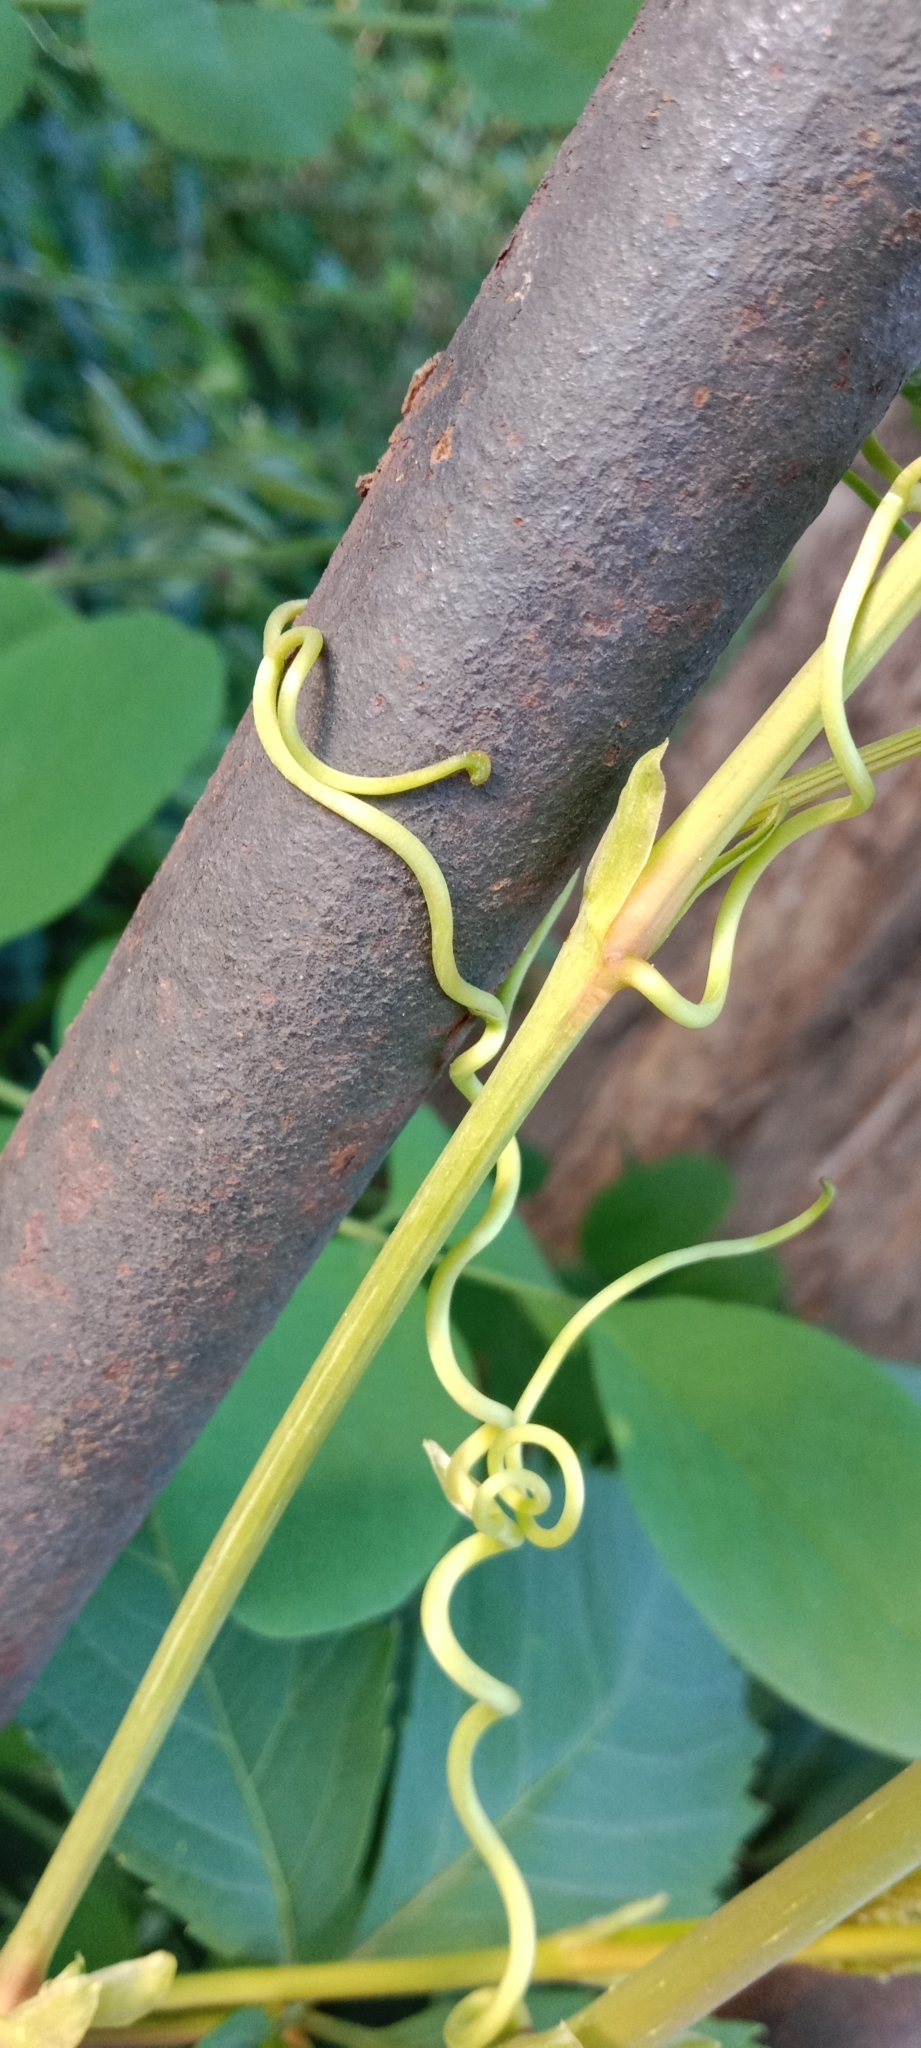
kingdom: Plantae
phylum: Tracheophyta
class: Magnoliopsida
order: Vitales
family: Vitaceae
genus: Parthenocissus
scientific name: Parthenocissus inserta
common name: False virginia-creeper
